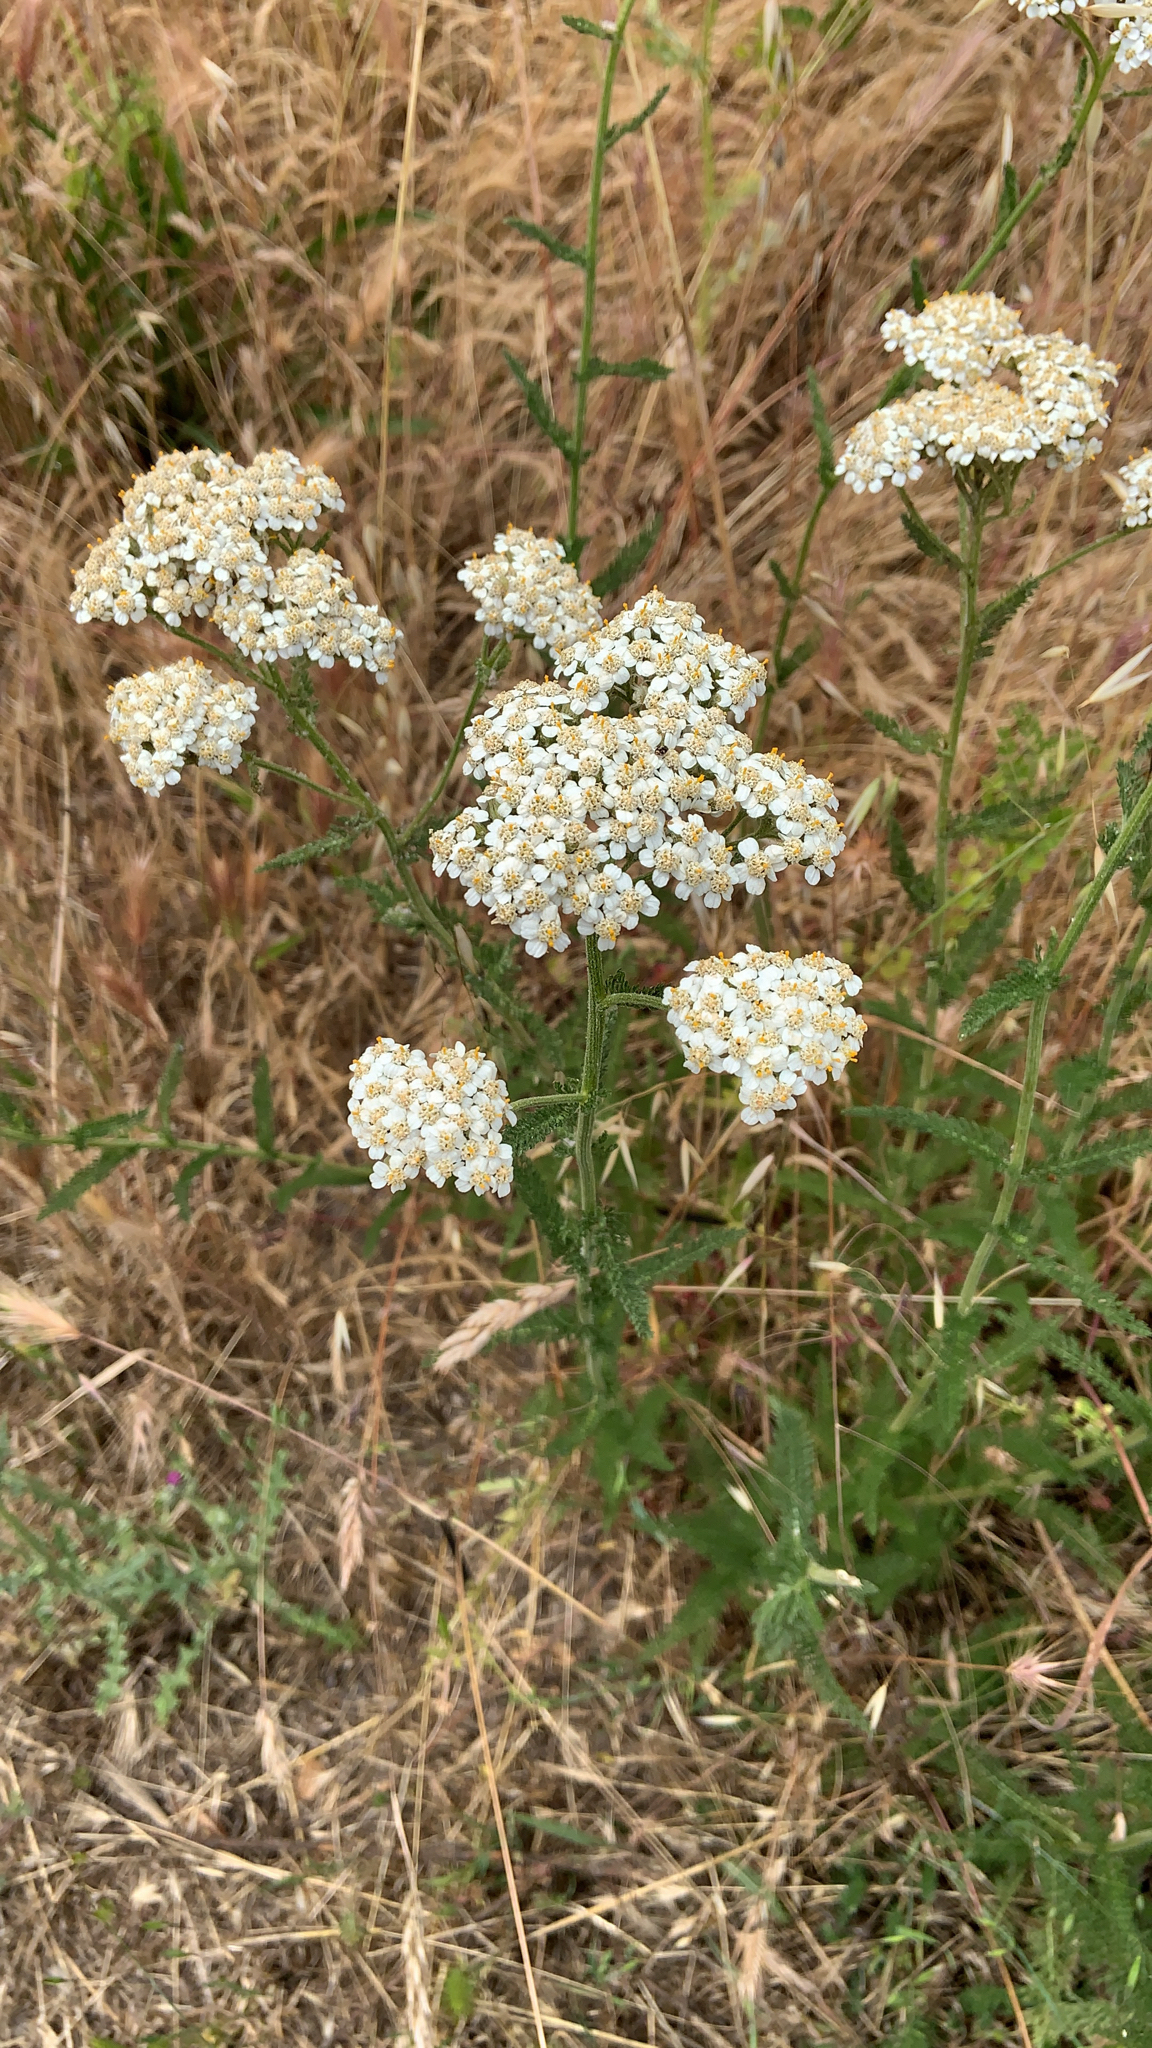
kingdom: Plantae
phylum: Tracheophyta
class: Magnoliopsida
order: Asterales
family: Asteraceae
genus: Achillea
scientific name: Achillea millefolium
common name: Yarrow
